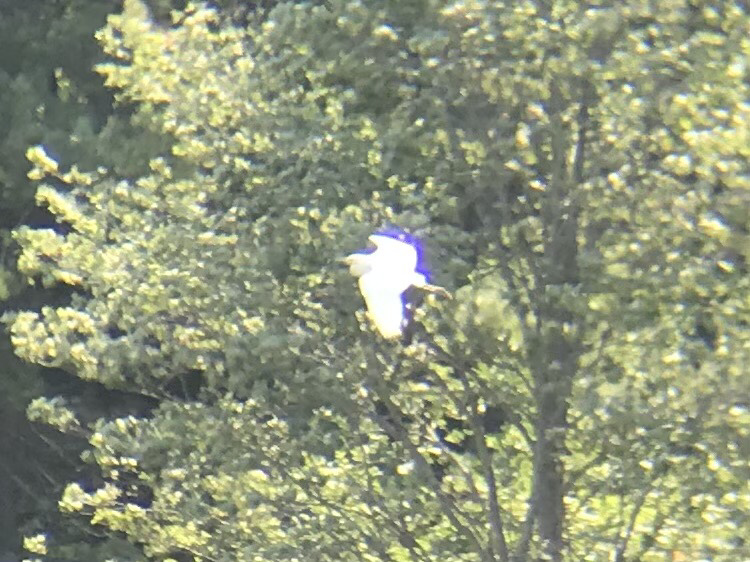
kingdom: Animalia
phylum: Chordata
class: Aves
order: Pelecaniformes
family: Ardeidae
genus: Ardea
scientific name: Ardea alba
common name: Great egret
